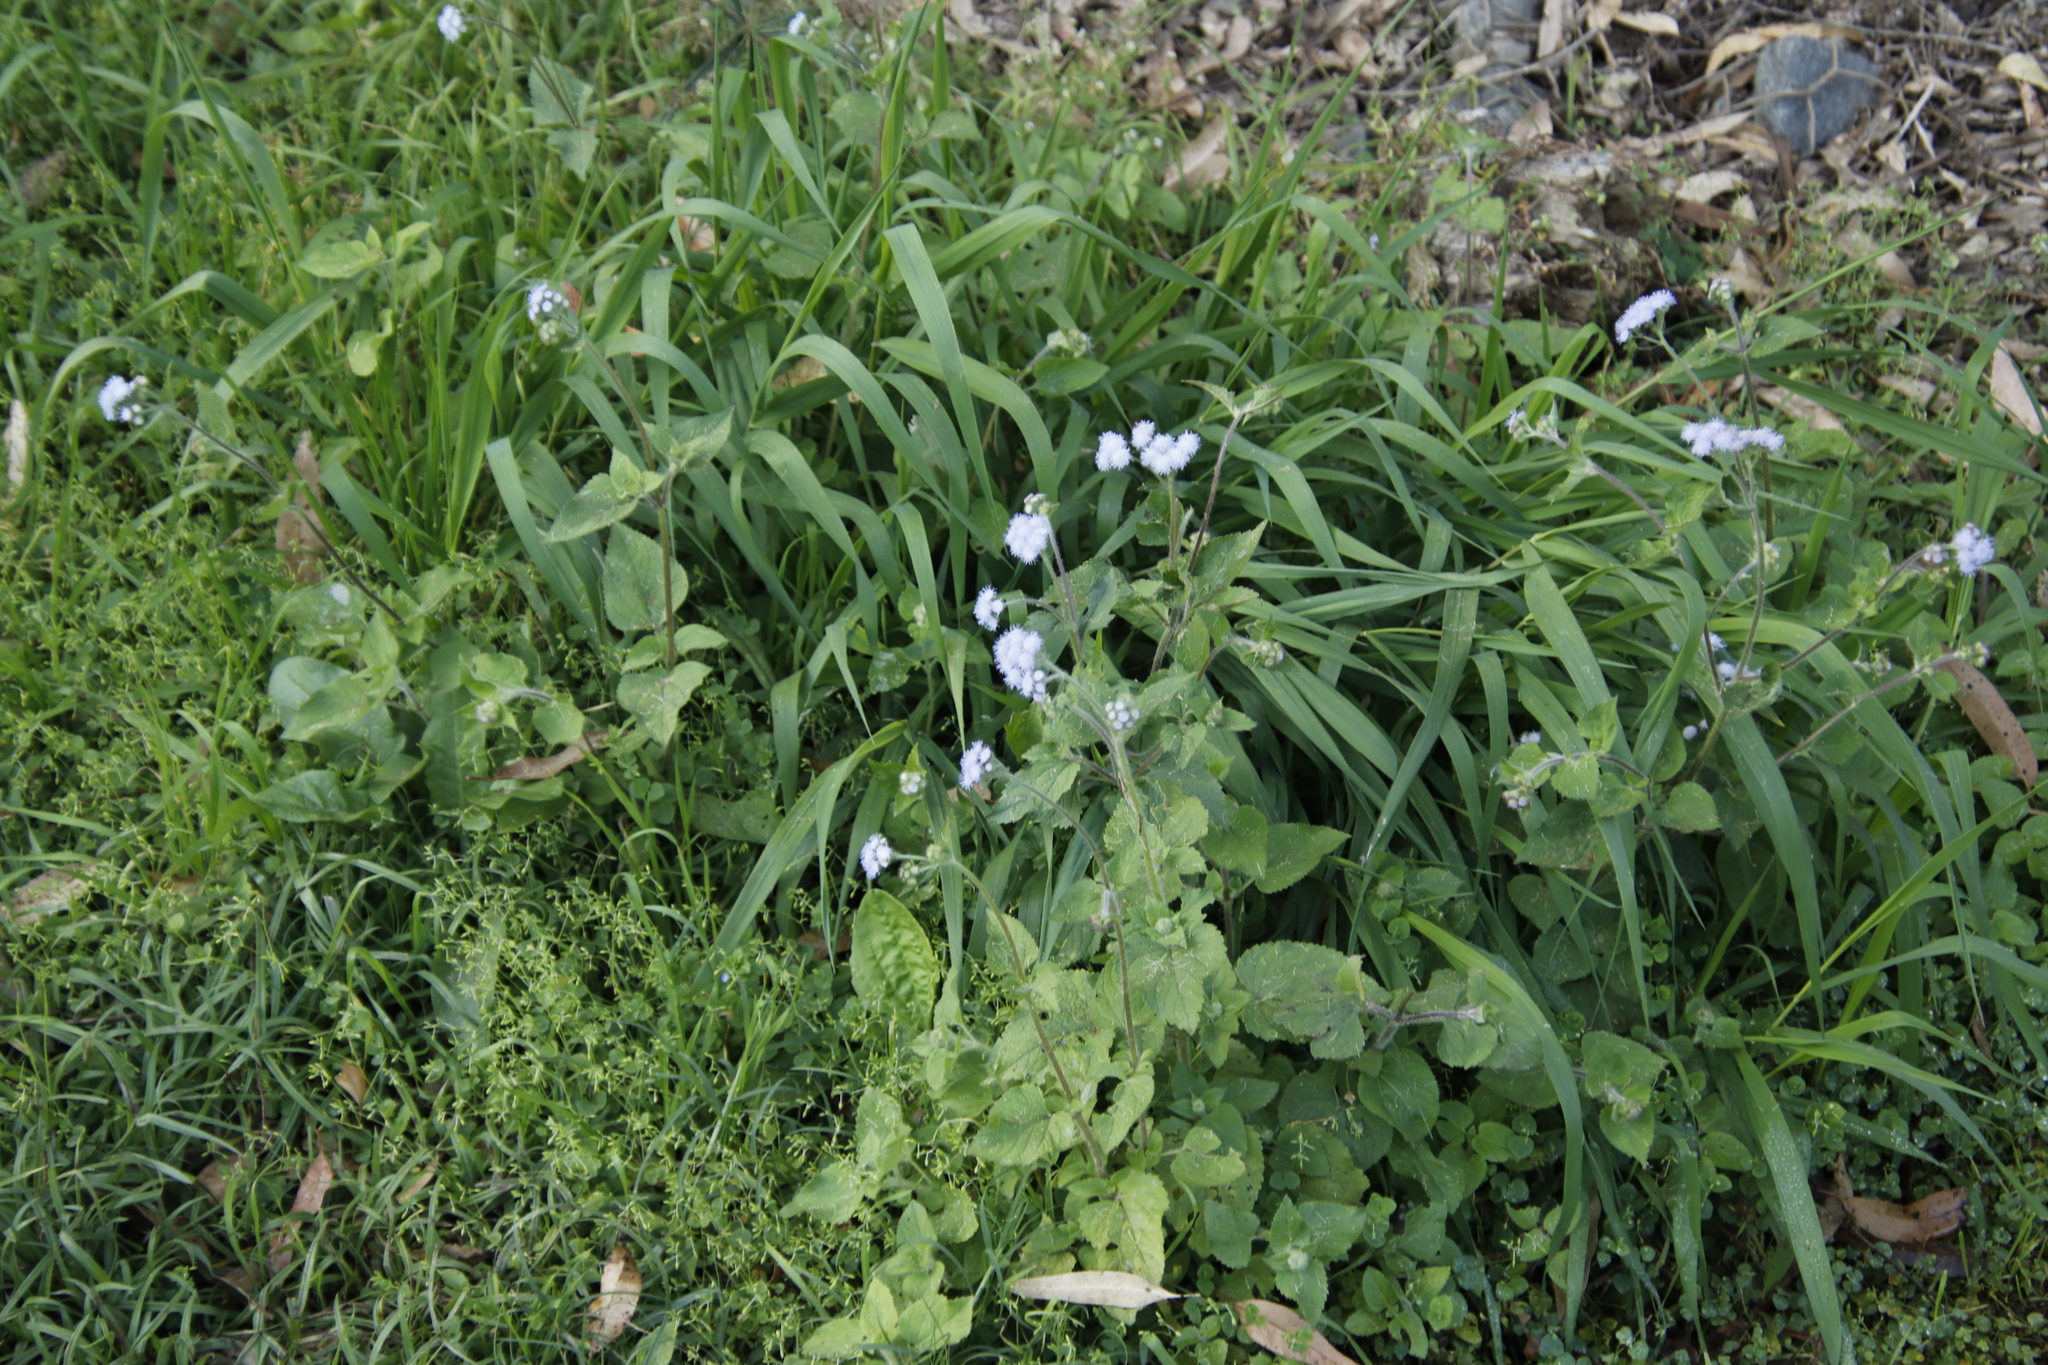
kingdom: Plantae
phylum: Tracheophyta
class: Magnoliopsida
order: Asterales
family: Asteraceae
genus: Ageratum
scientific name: Ageratum houstonianum
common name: Bluemink
